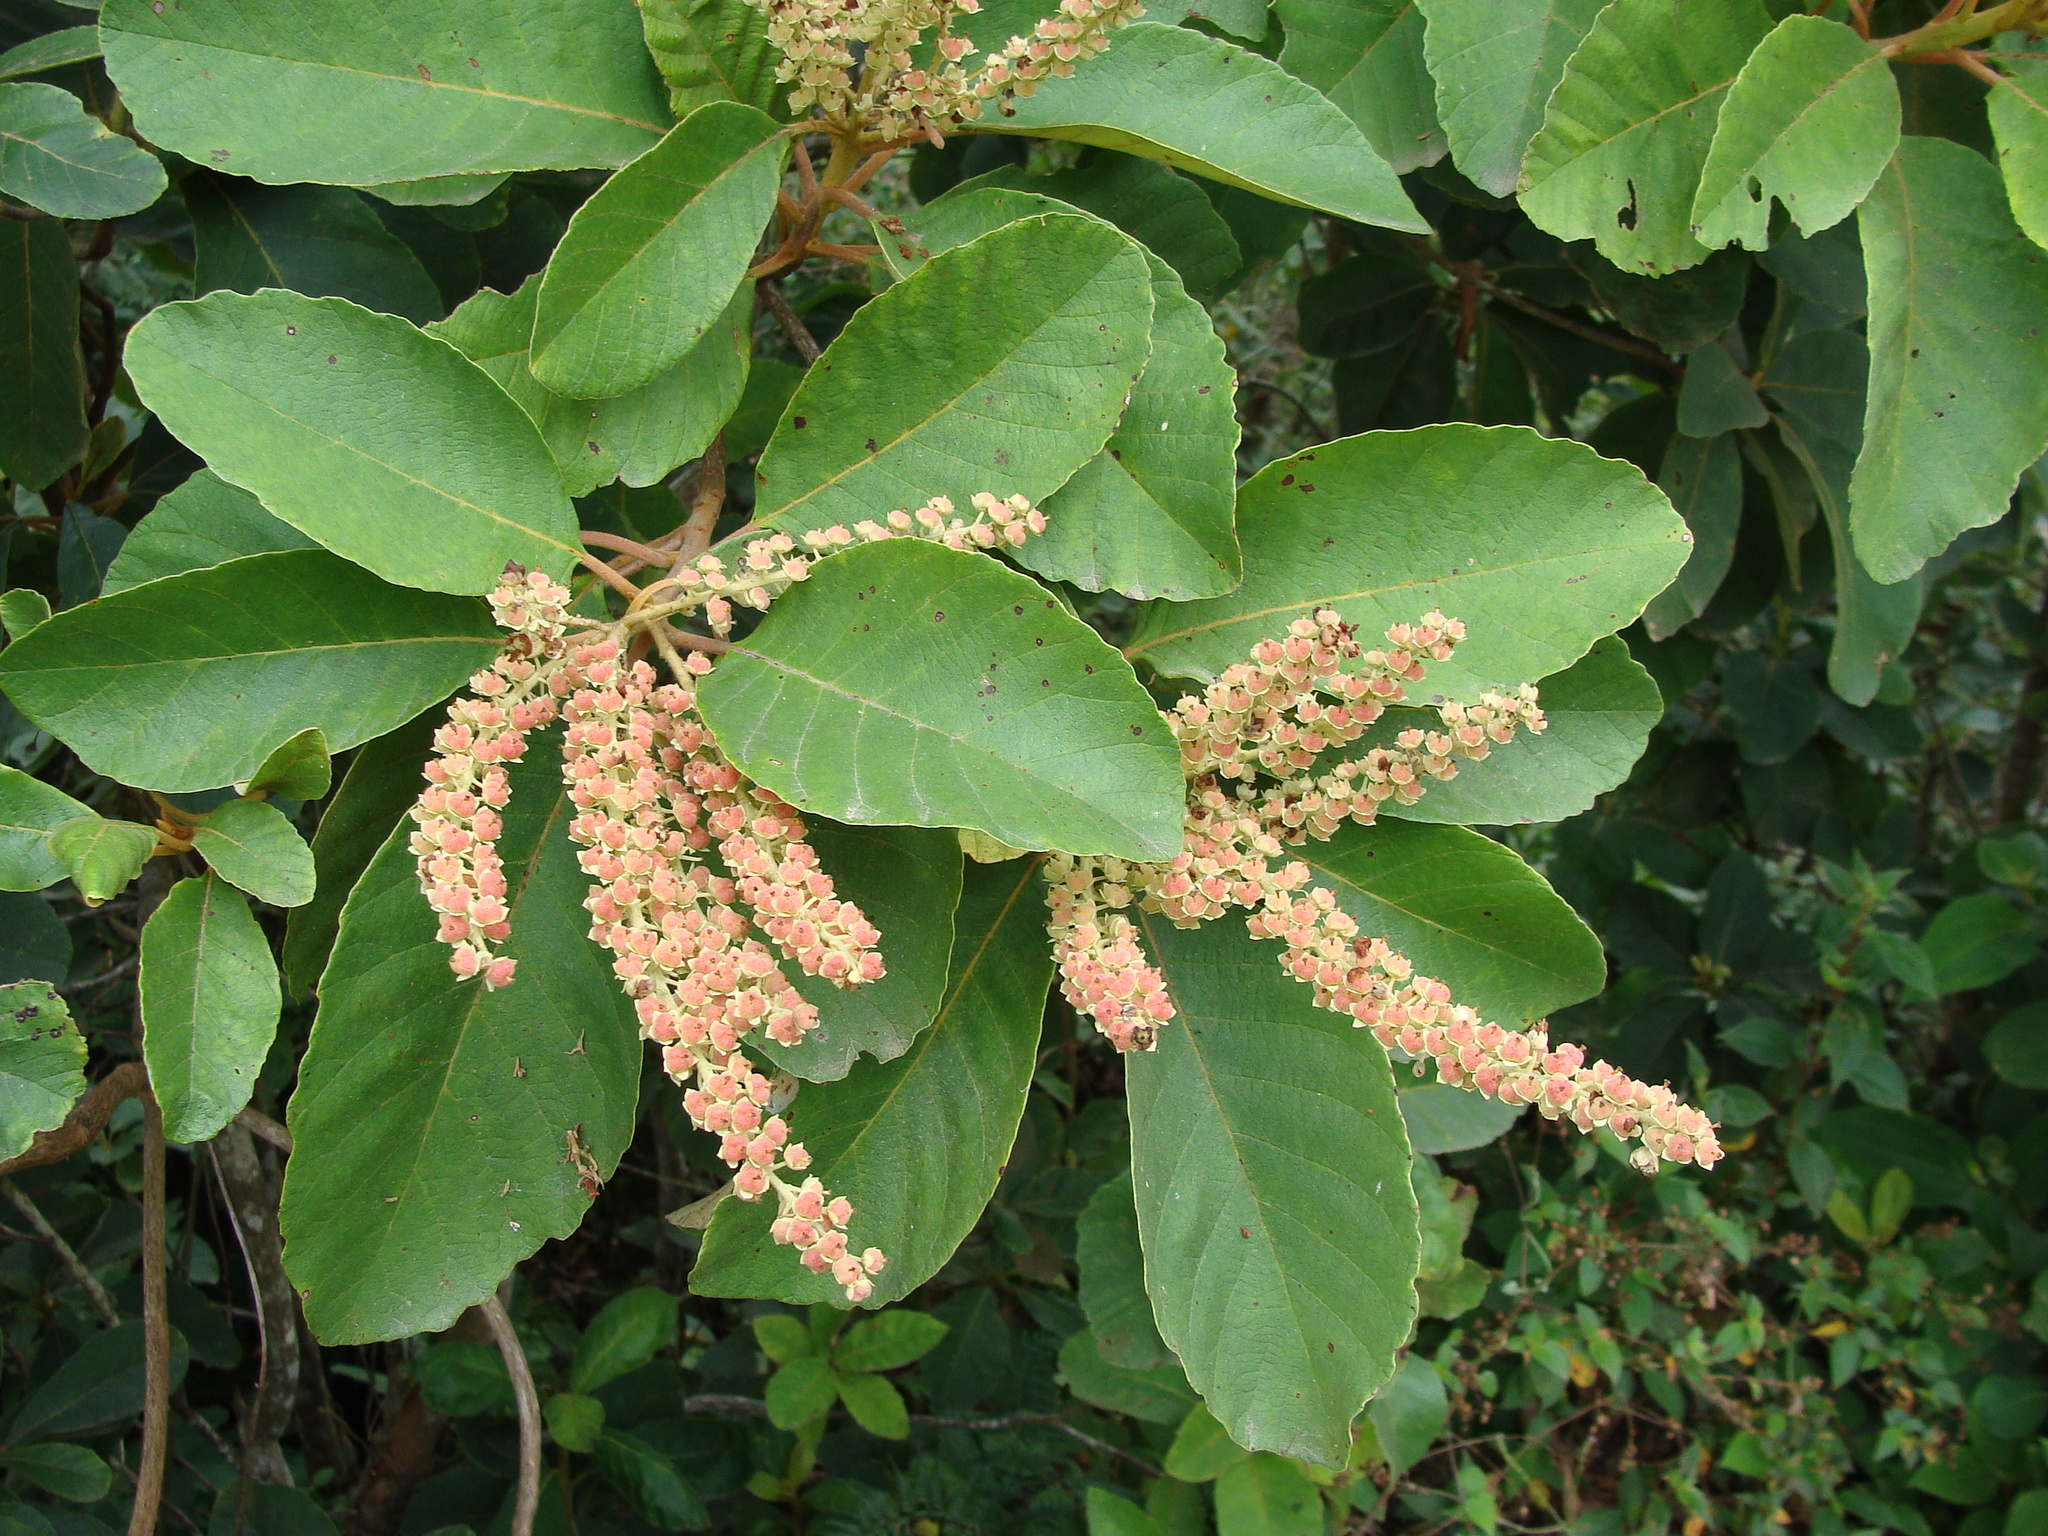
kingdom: Plantae
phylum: Tracheophyta
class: Magnoliopsida
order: Ericales
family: Clethraceae
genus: Clethra
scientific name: Clethra mexicana
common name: Nance macho
